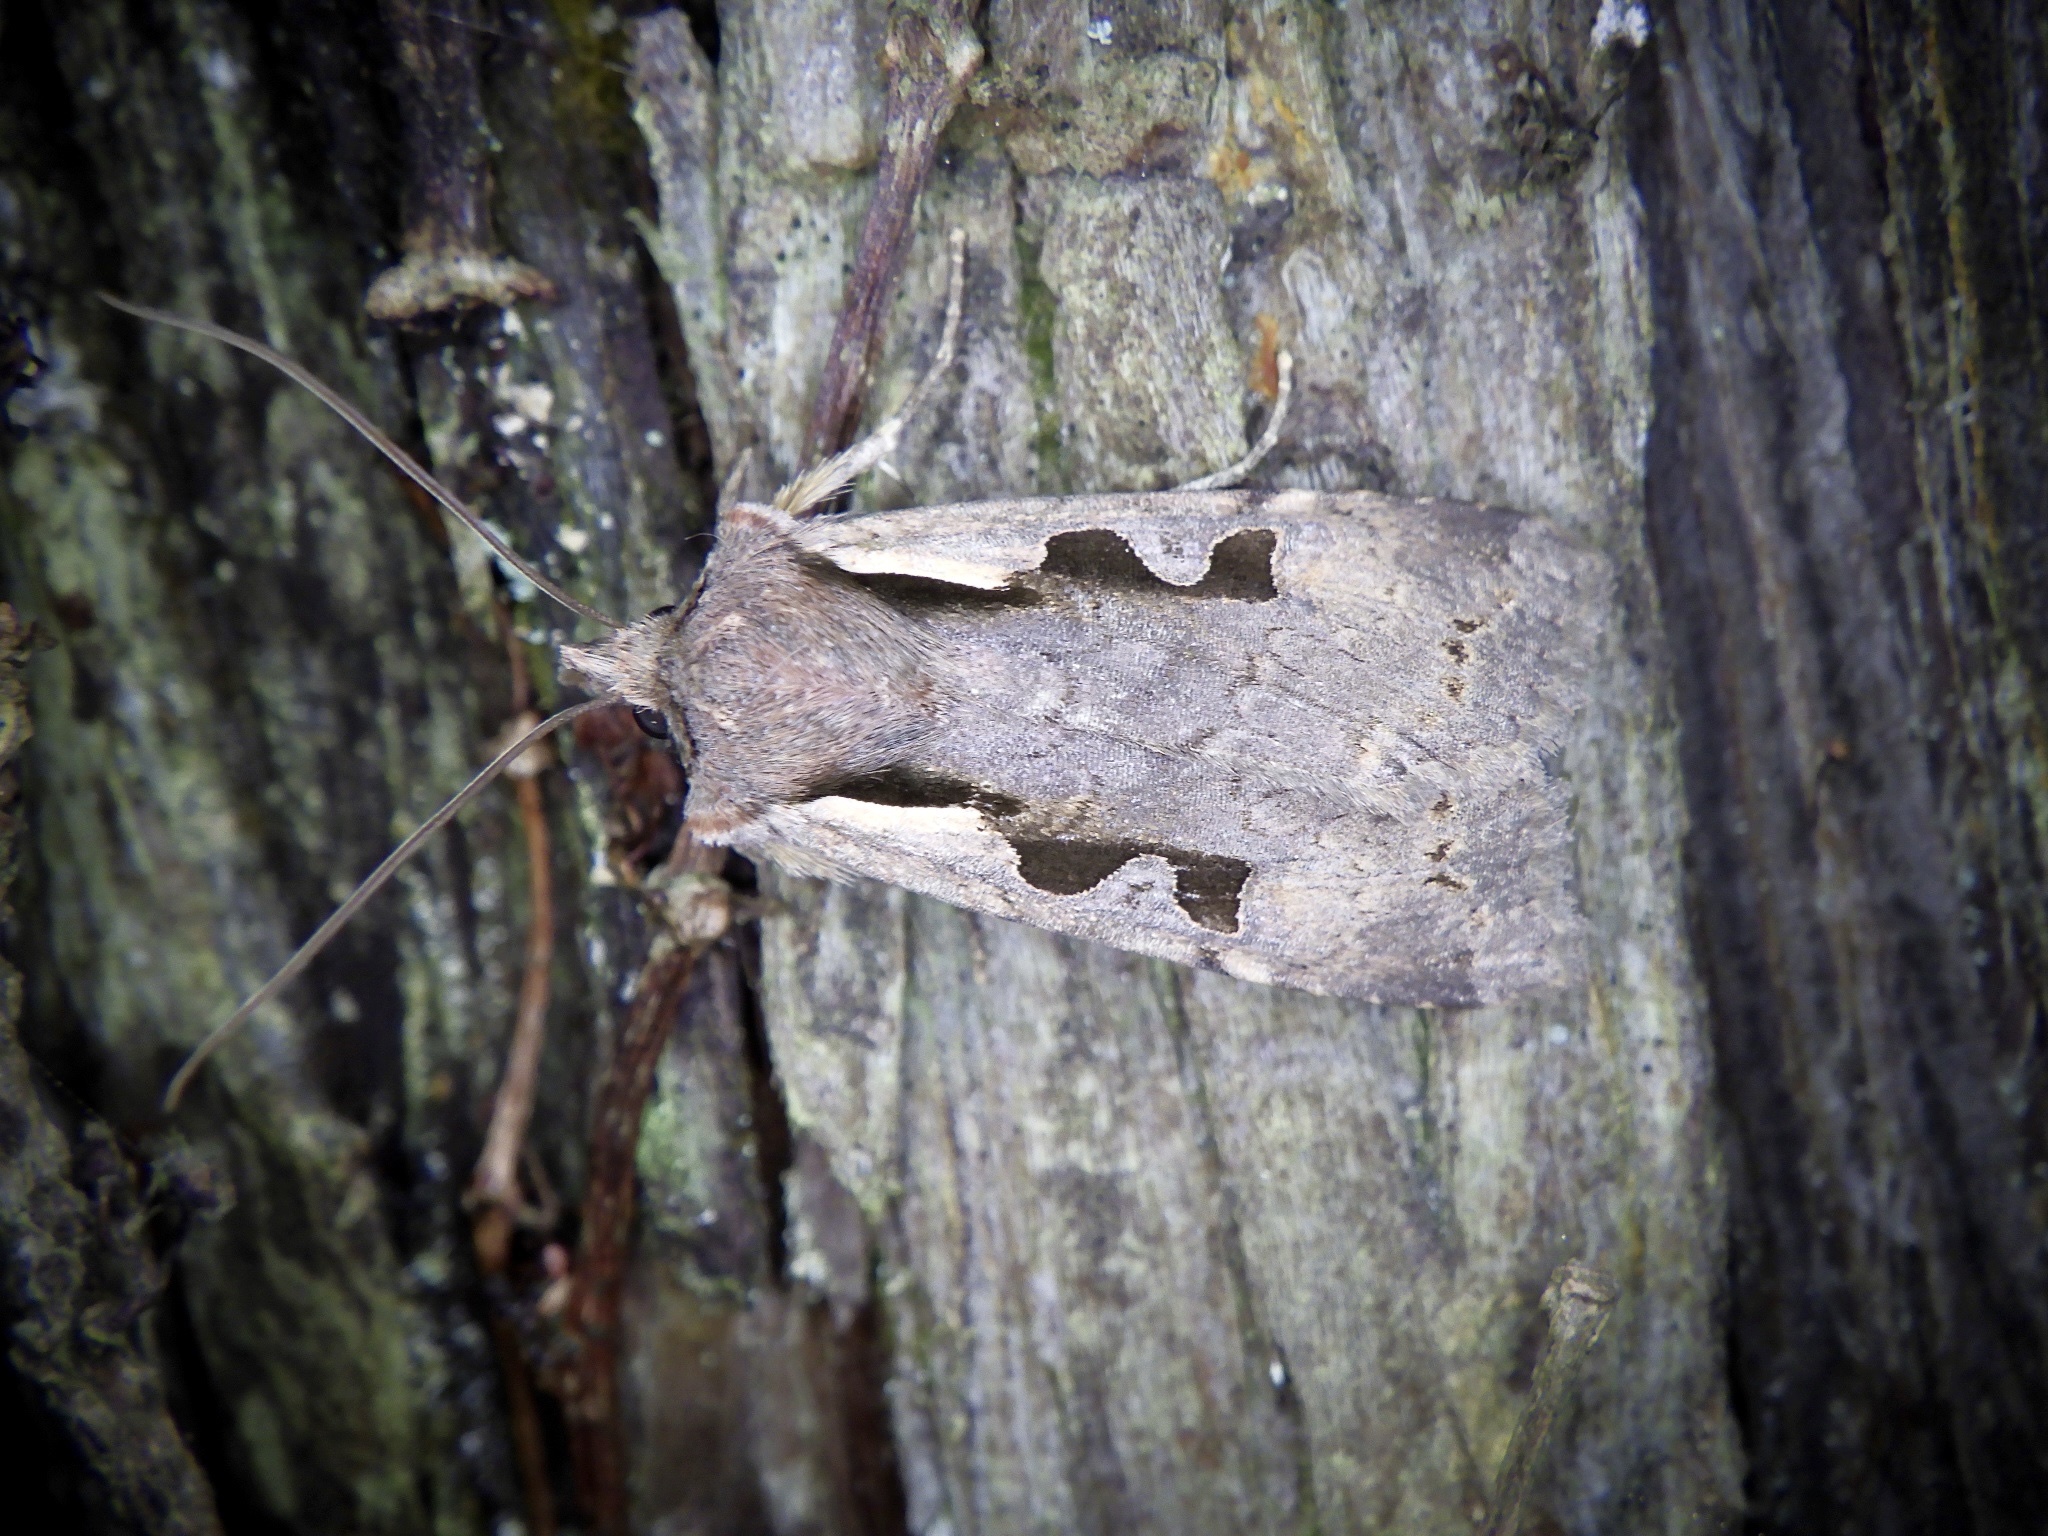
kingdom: Animalia
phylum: Arthropoda
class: Insecta
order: Lepidoptera
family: Noctuidae
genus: Sugitania
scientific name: Sugitania lepida
